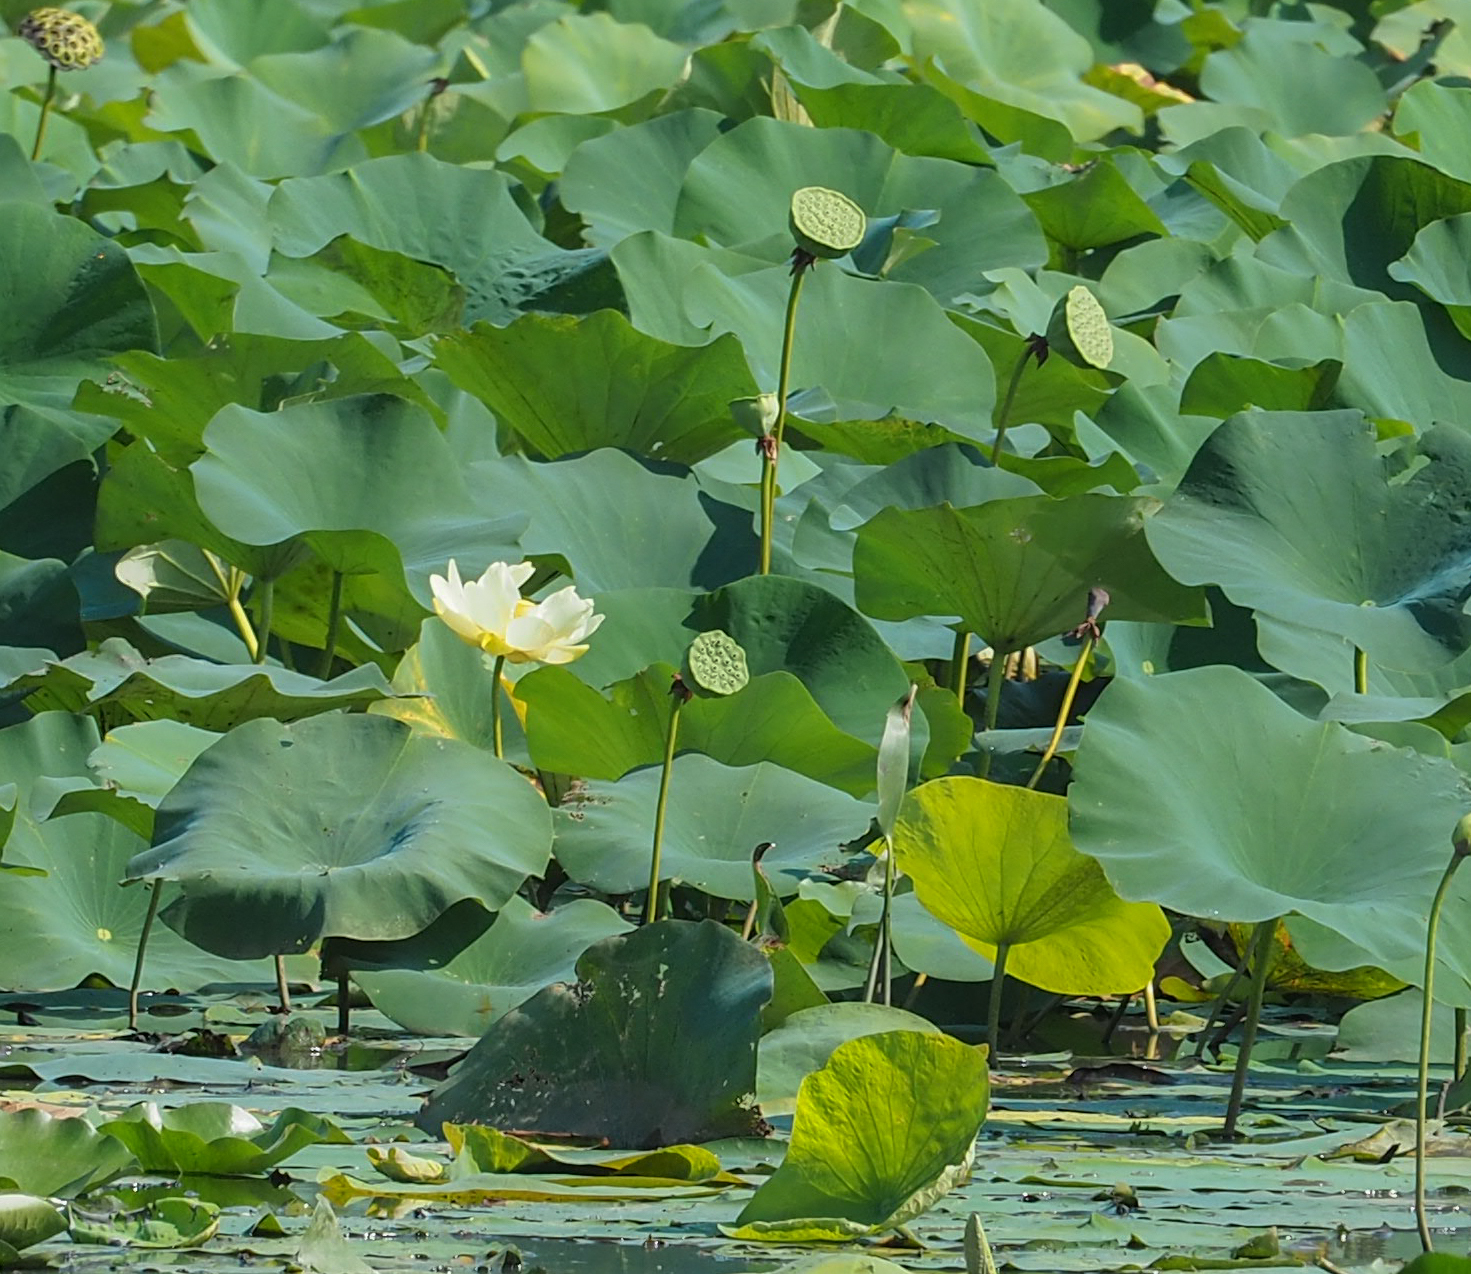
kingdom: Plantae
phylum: Tracheophyta
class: Magnoliopsida
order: Proteales
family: Nelumbonaceae
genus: Nelumbo
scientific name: Nelumbo lutea
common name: American lotus
